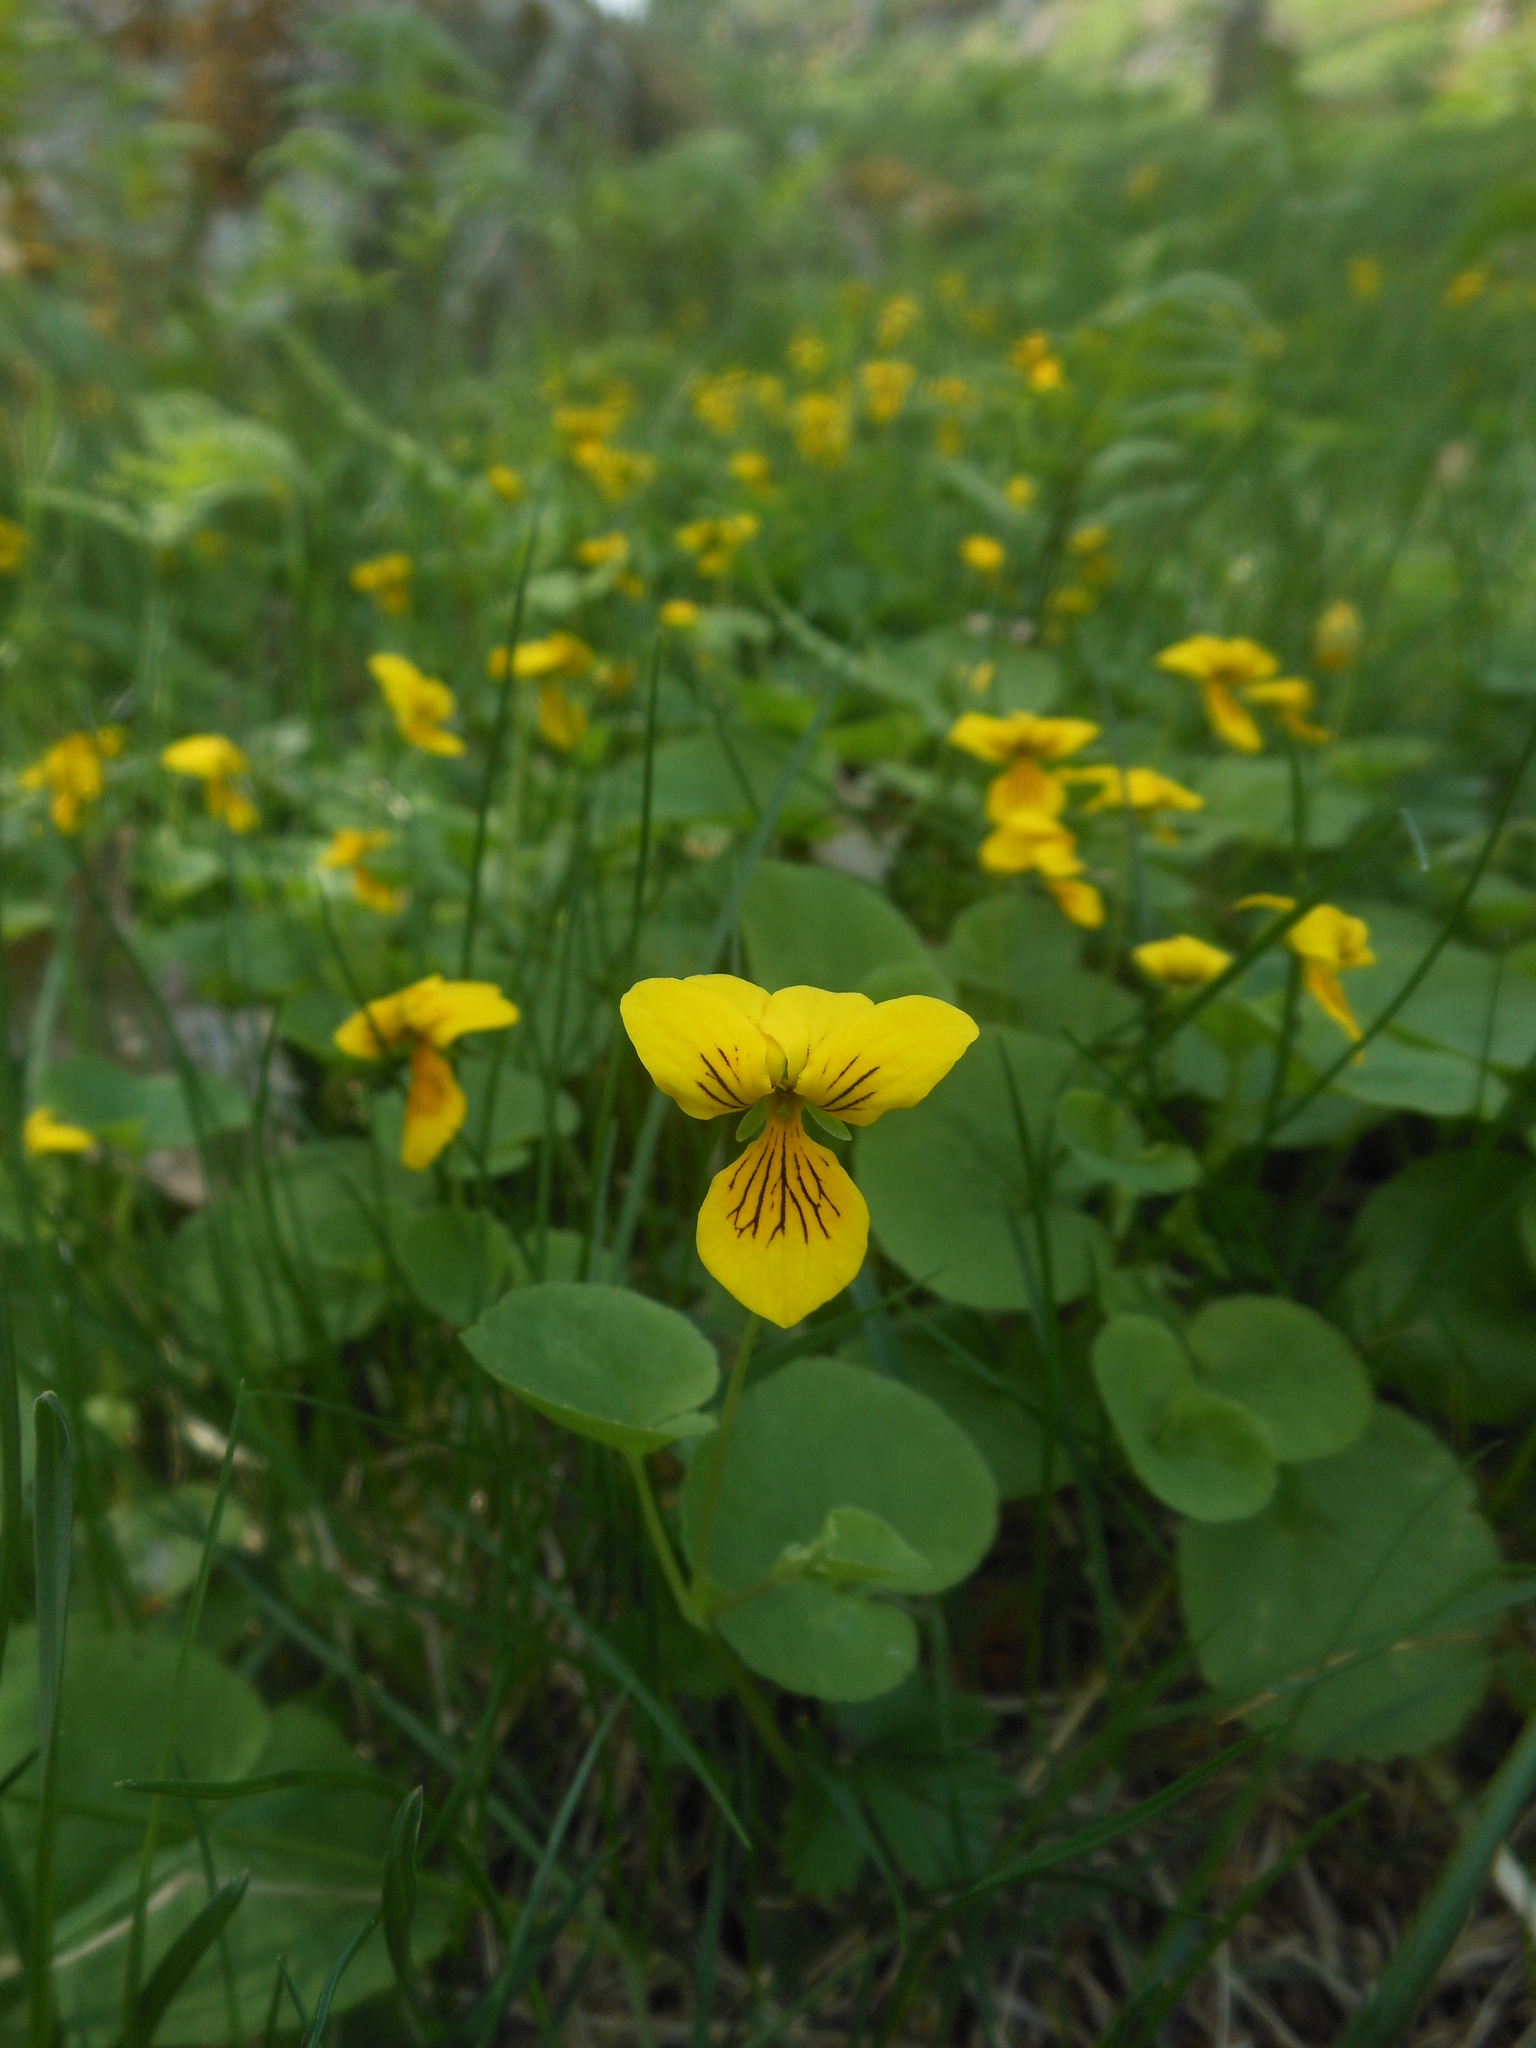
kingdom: Plantae
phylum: Tracheophyta
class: Magnoliopsida
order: Malpighiales
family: Violaceae
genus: Viola
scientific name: Viola biflora
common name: Alpine yellow violet
